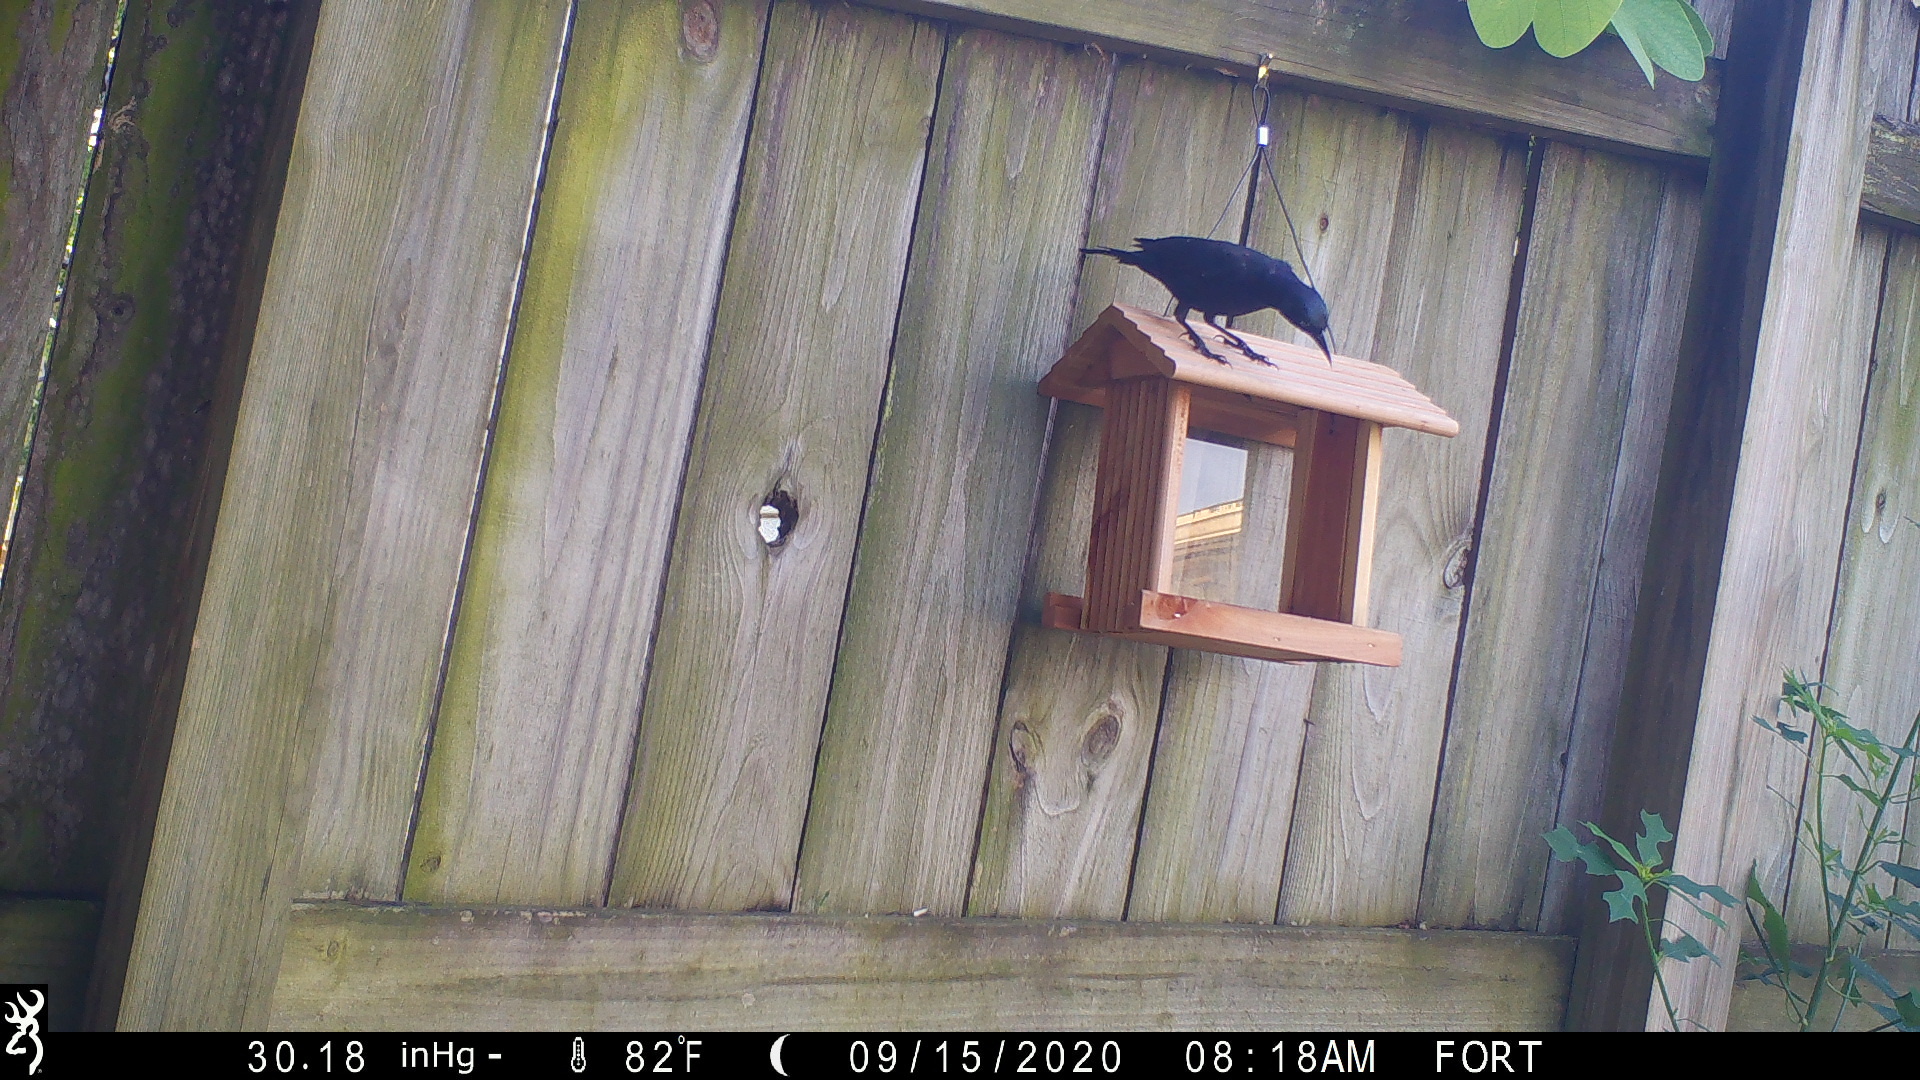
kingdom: Animalia
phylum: Chordata
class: Aves
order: Passeriformes
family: Icteridae
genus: Quiscalus
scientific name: Quiscalus quiscula
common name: Common grackle
